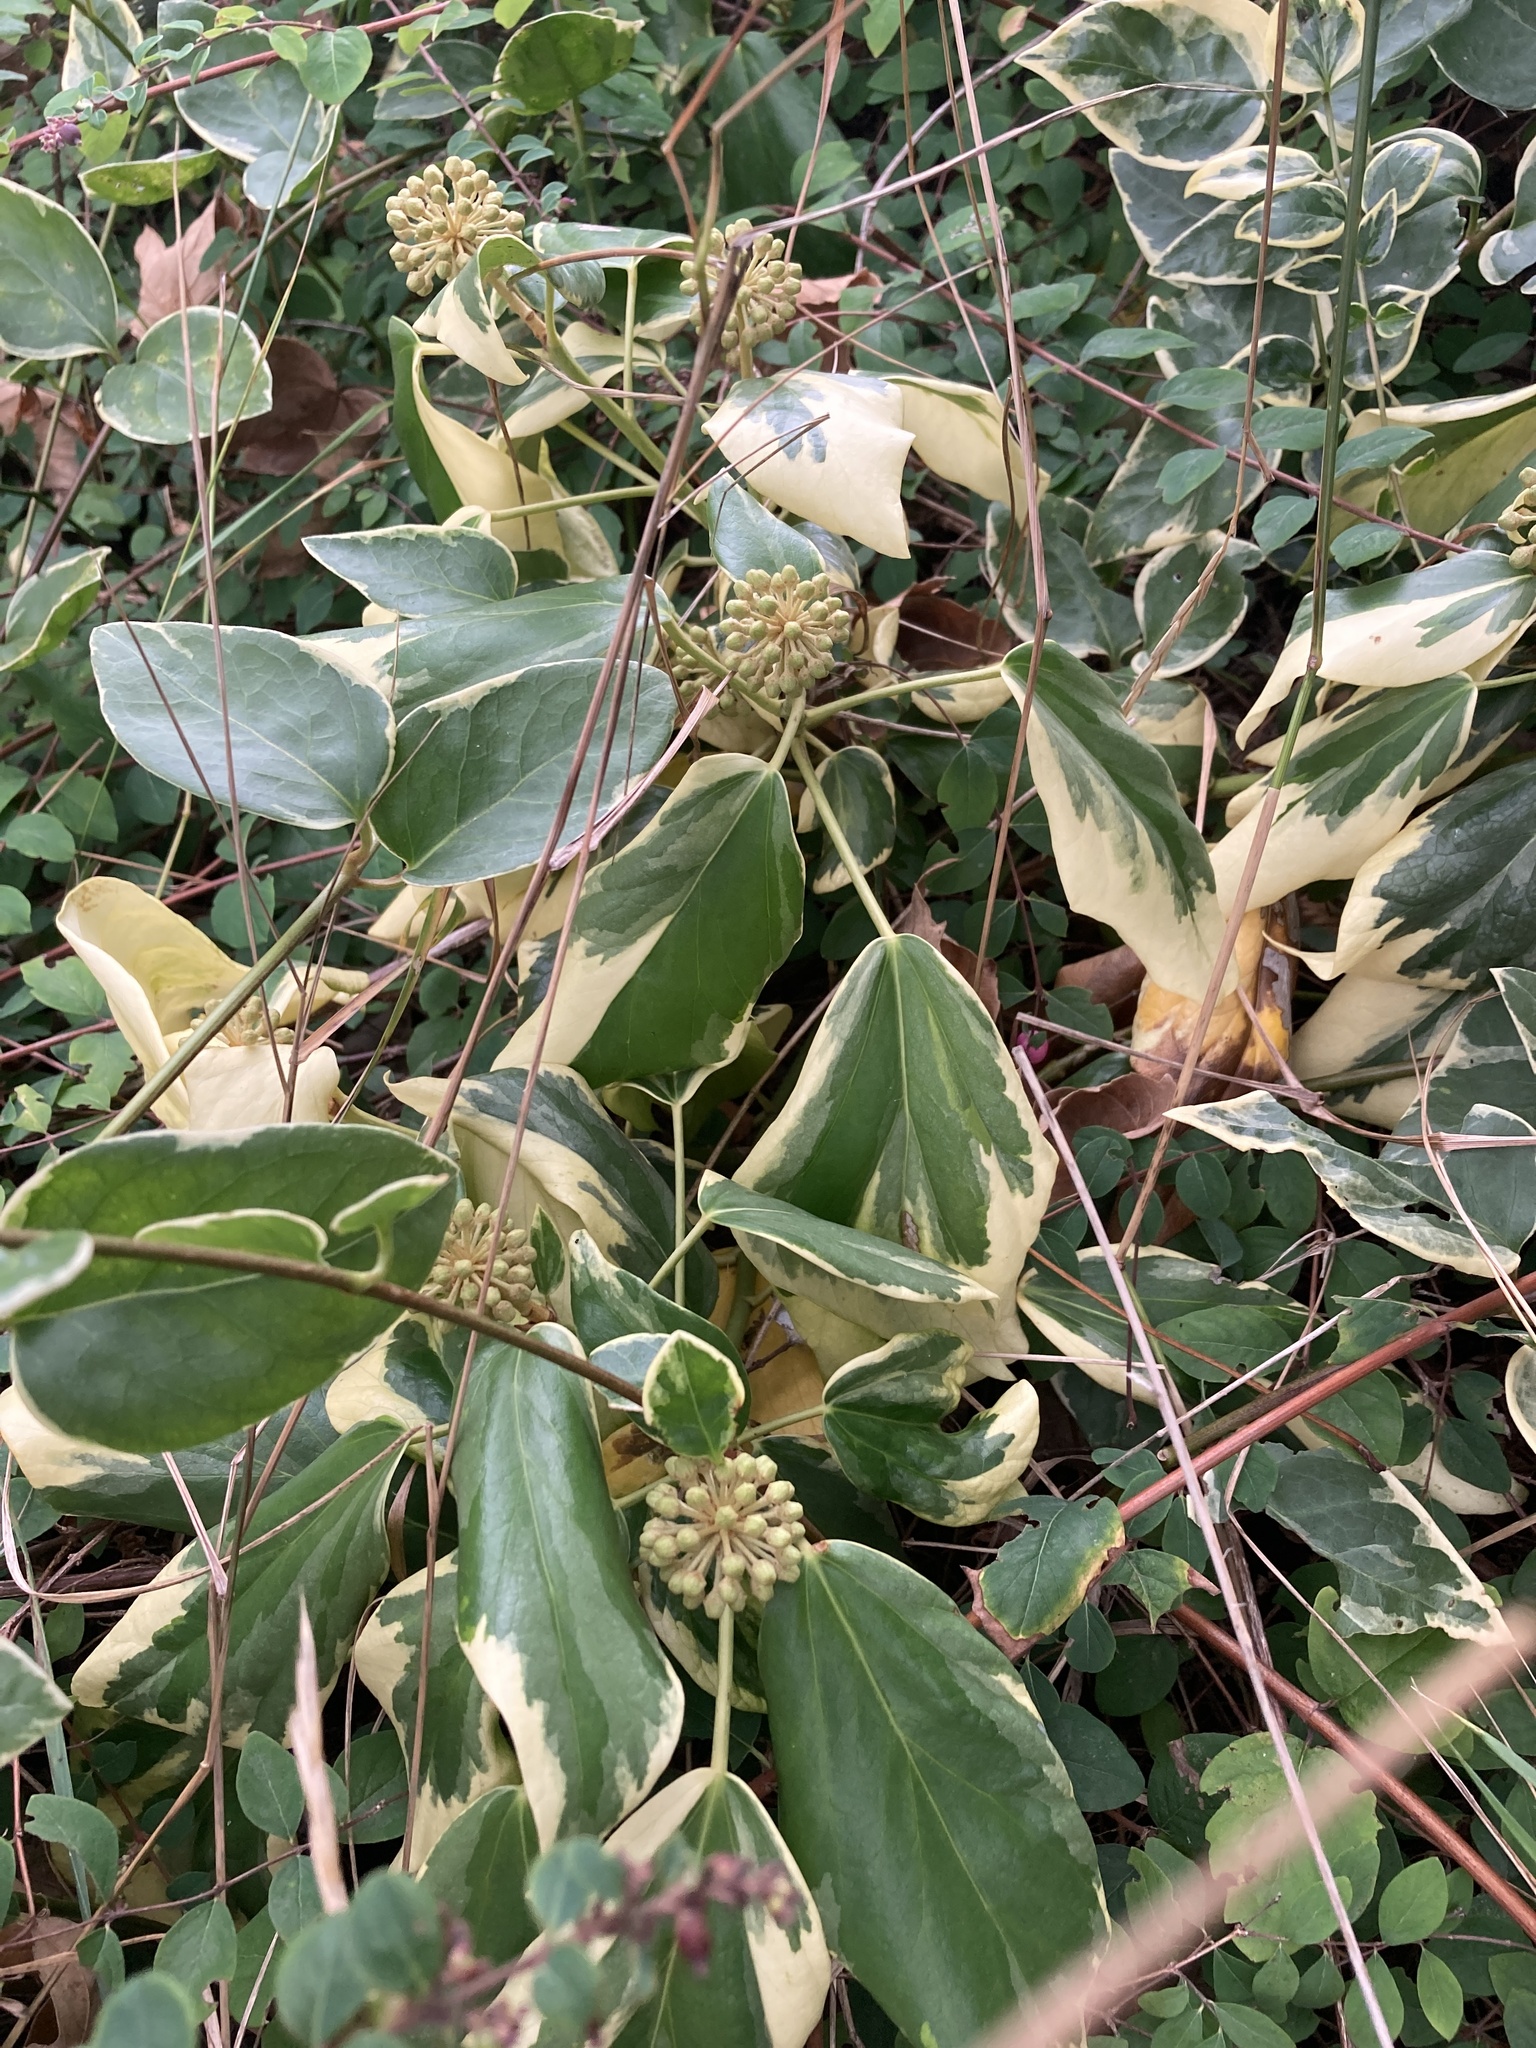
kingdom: Plantae
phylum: Tracheophyta
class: Magnoliopsida
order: Apiales
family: Araliaceae
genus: Hedera
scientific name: Hedera algeriensis
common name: Algerian ivy
